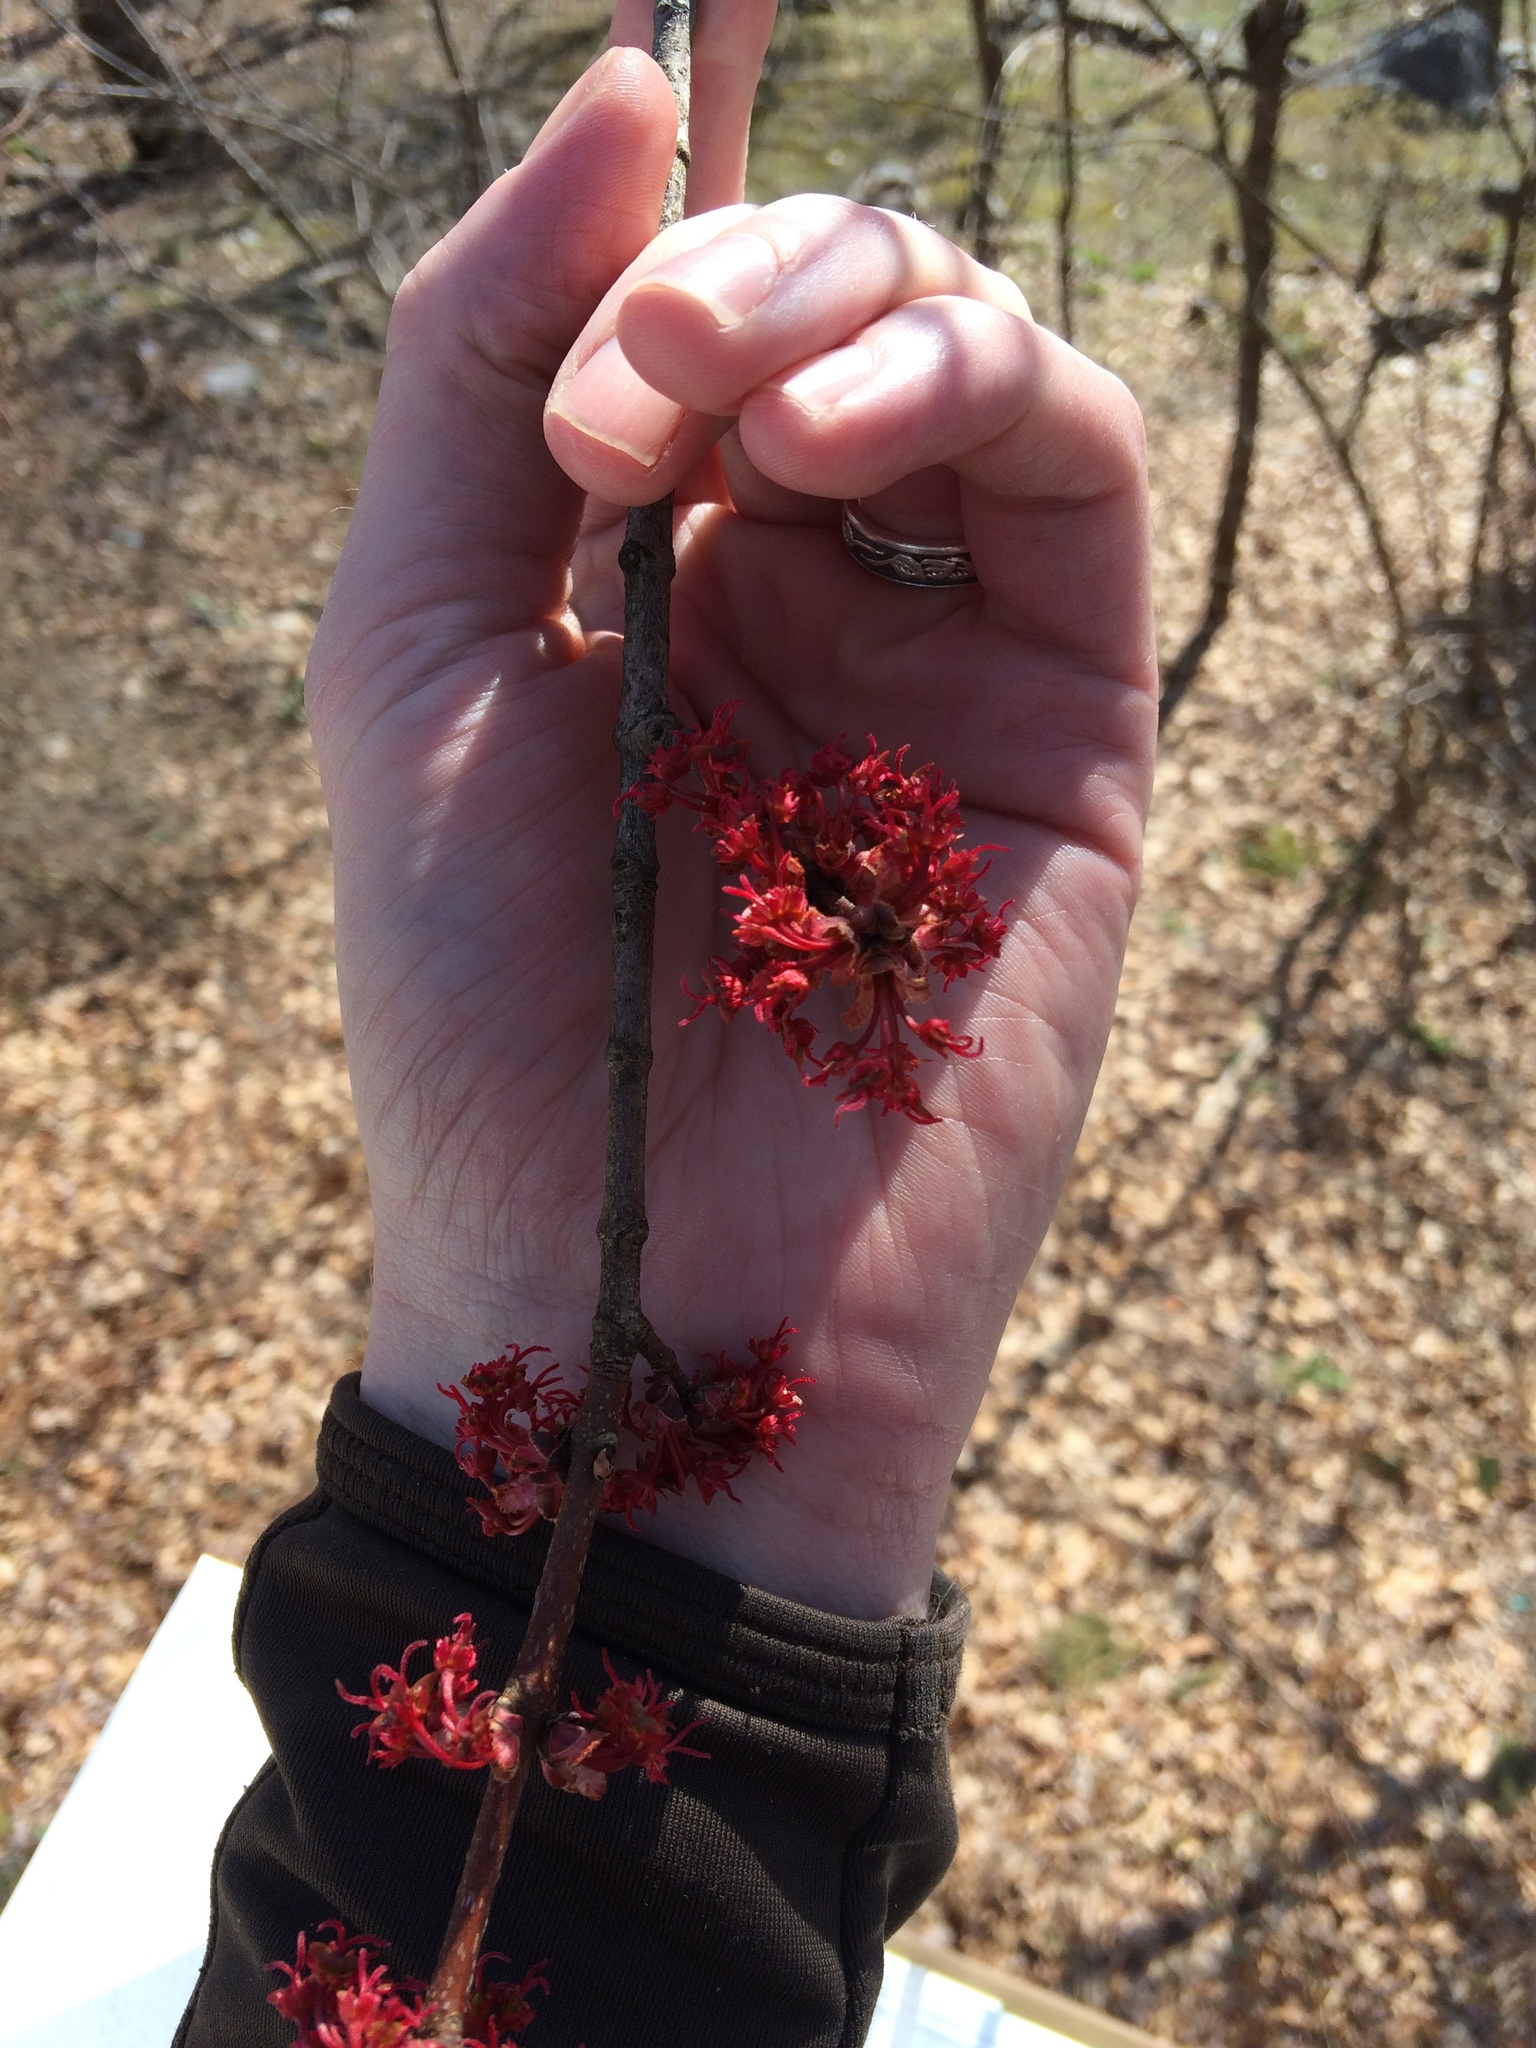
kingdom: Plantae
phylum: Tracheophyta
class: Magnoliopsida
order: Sapindales
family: Sapindaceae
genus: Acer
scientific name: Acer rubrum
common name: Red maple
